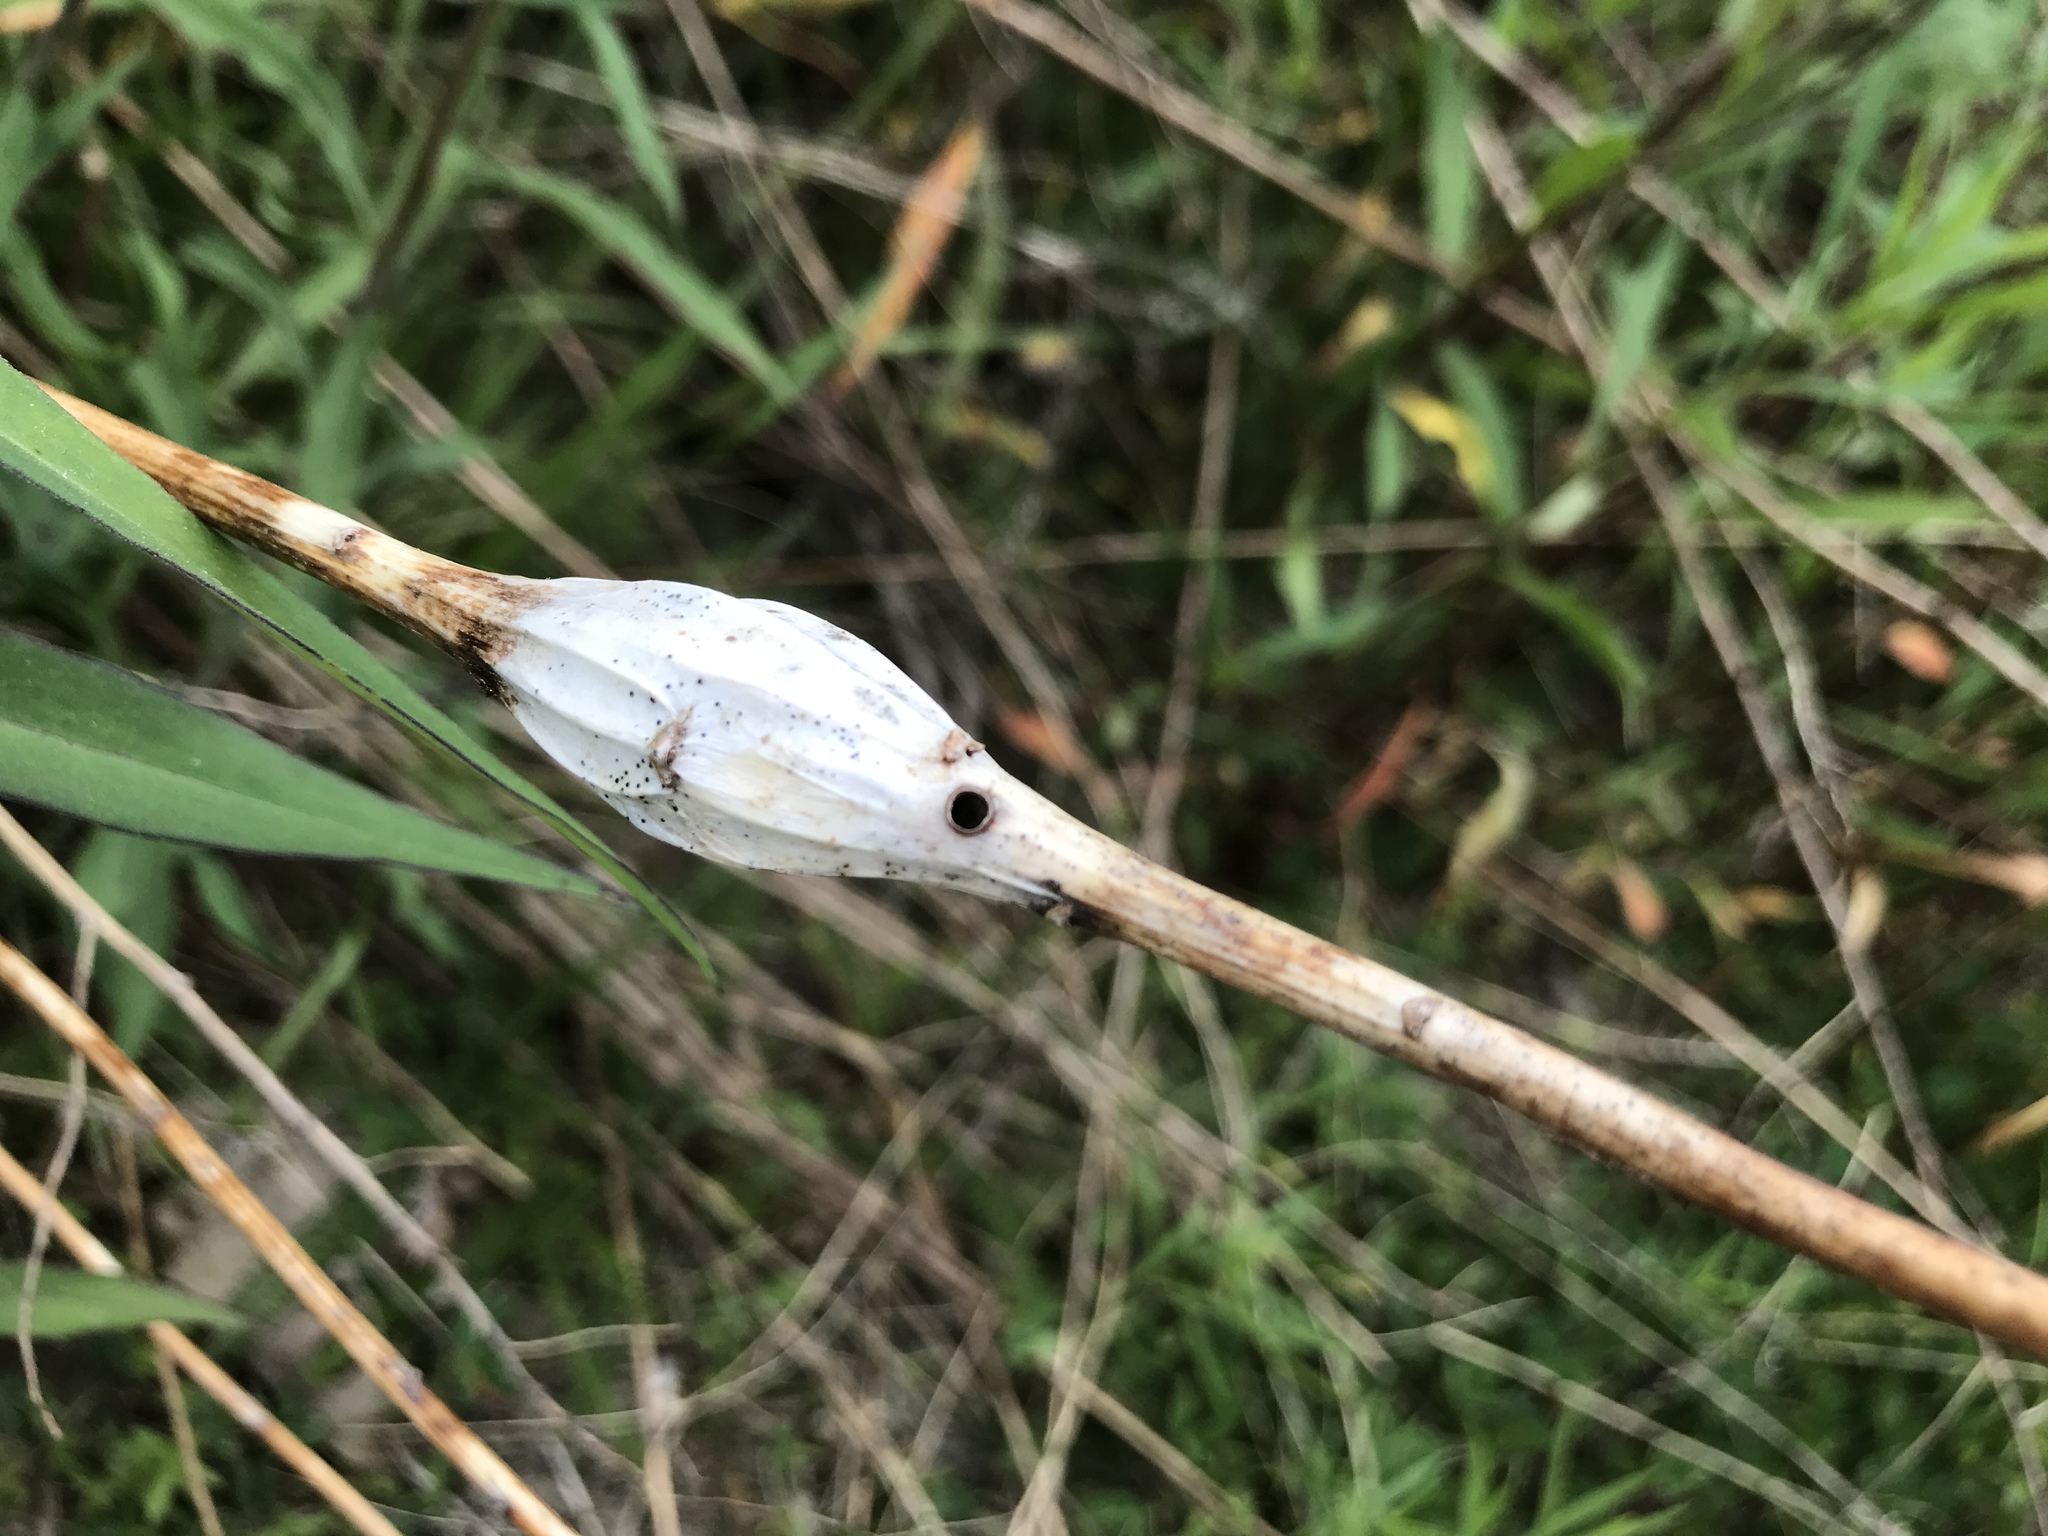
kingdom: Animalia
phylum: Arthropoda
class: Insecta
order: Lepidoptera
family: Gelechiidae
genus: Gnorimoschema
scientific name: Gnorimoschema gallaesolidaginis
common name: Goldenrod elliptical-gall moth
